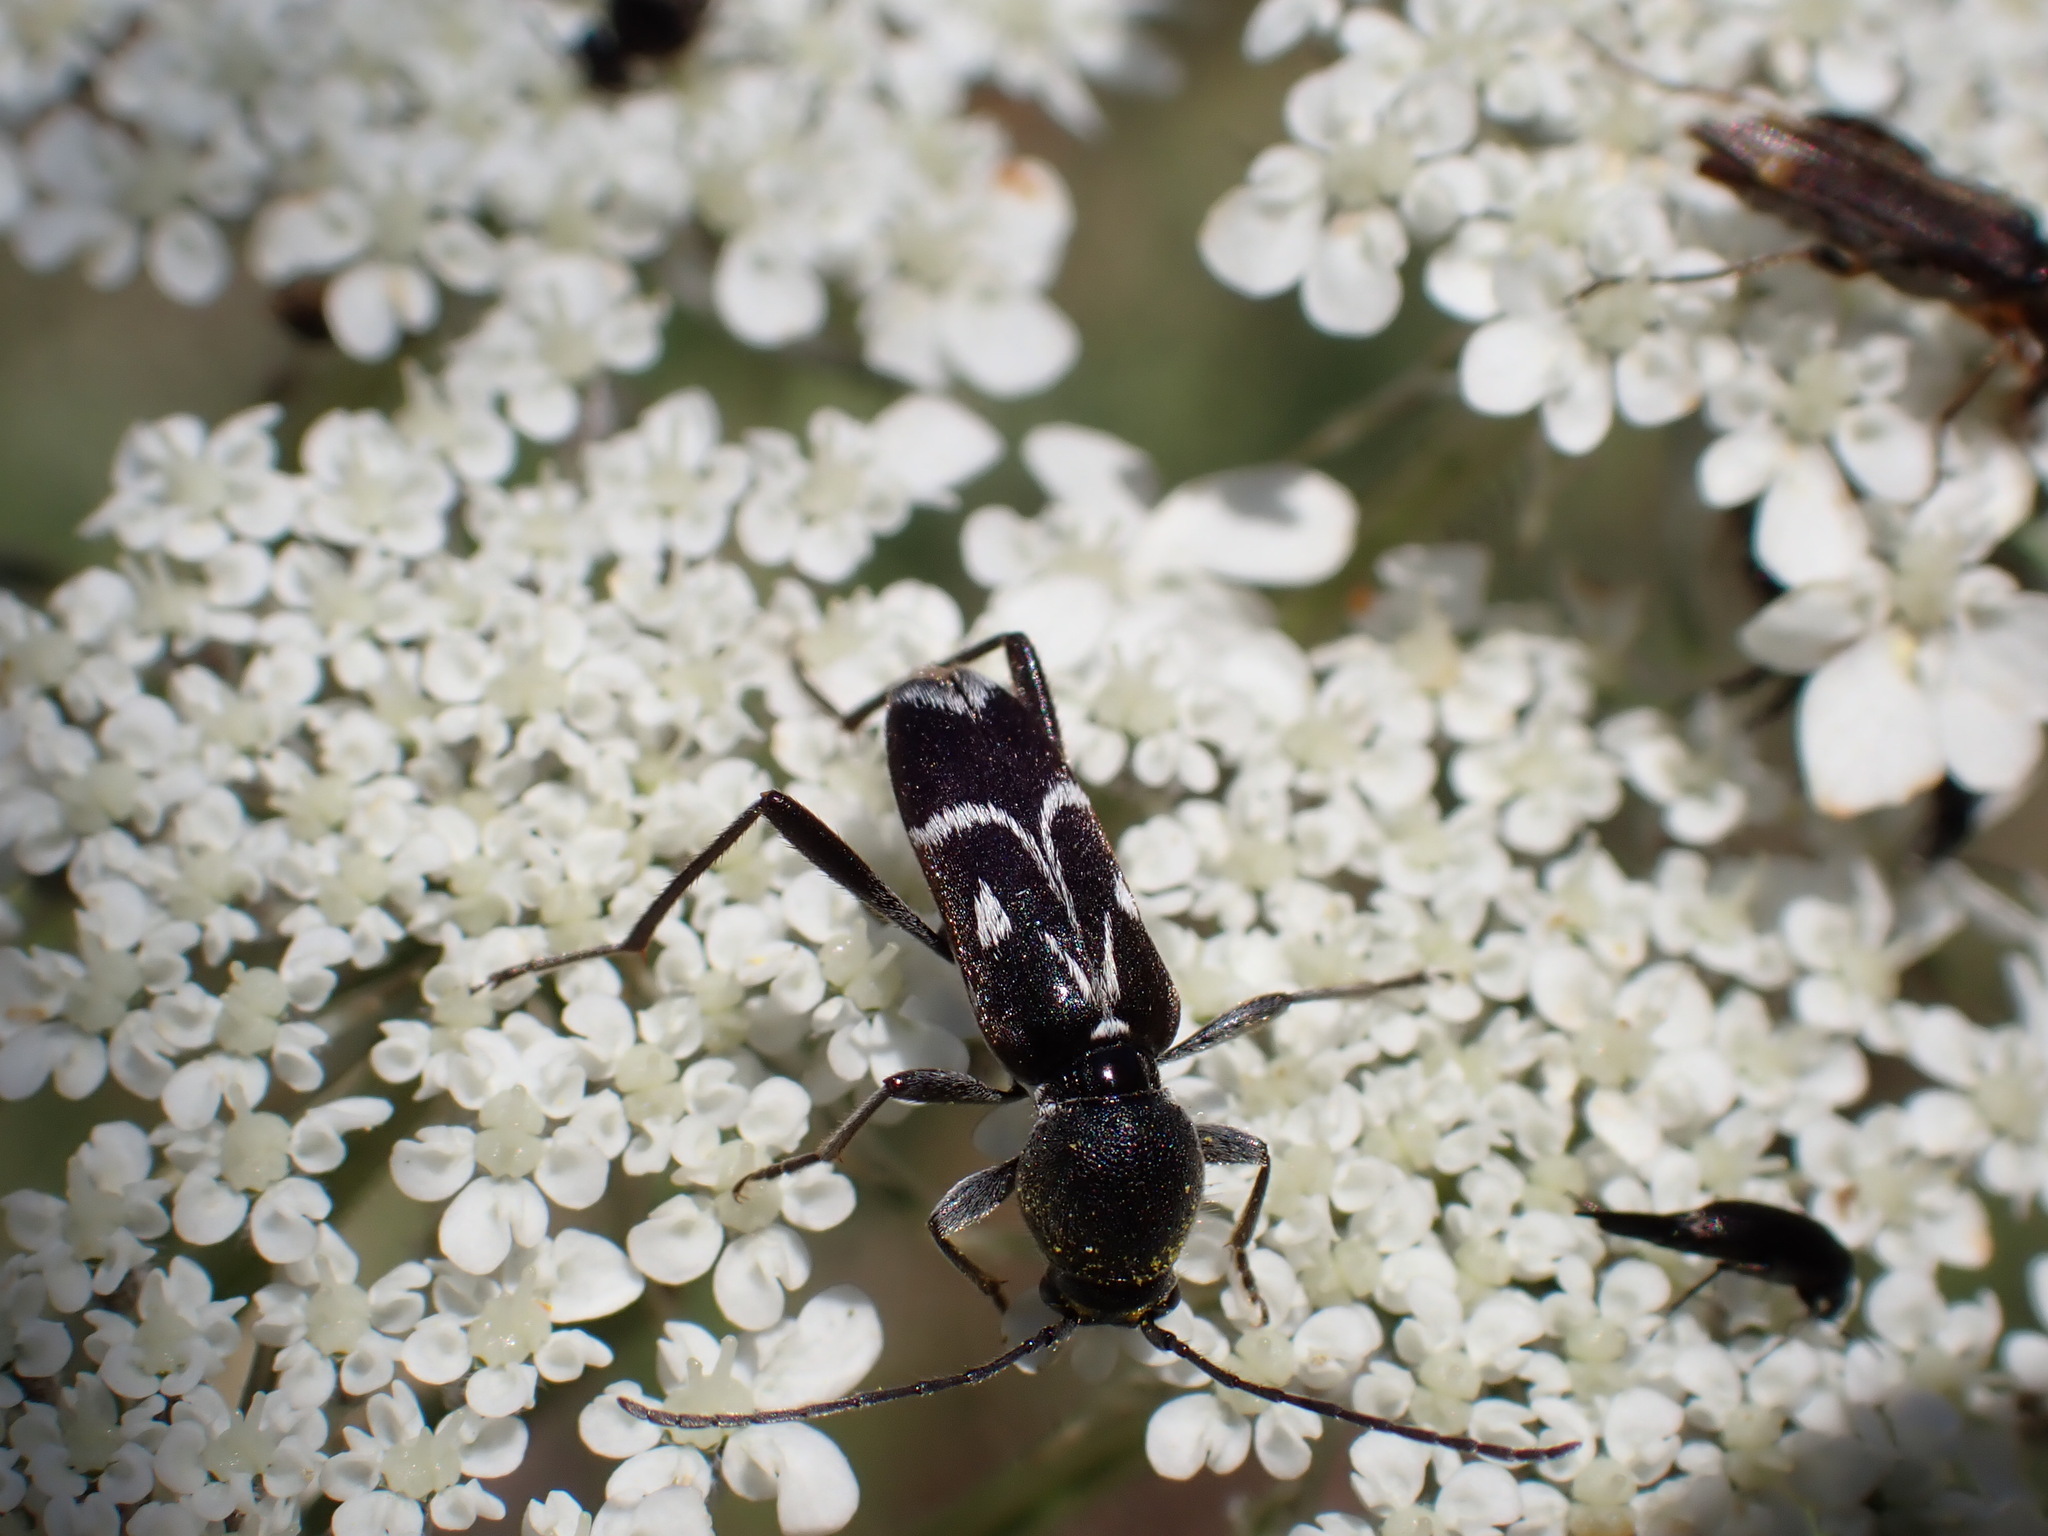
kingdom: Animalia
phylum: Arthropoda
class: Insecta
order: Coleoptera
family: Cerambycidae
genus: Chlorophorus
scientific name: Chlorophorus sartor
